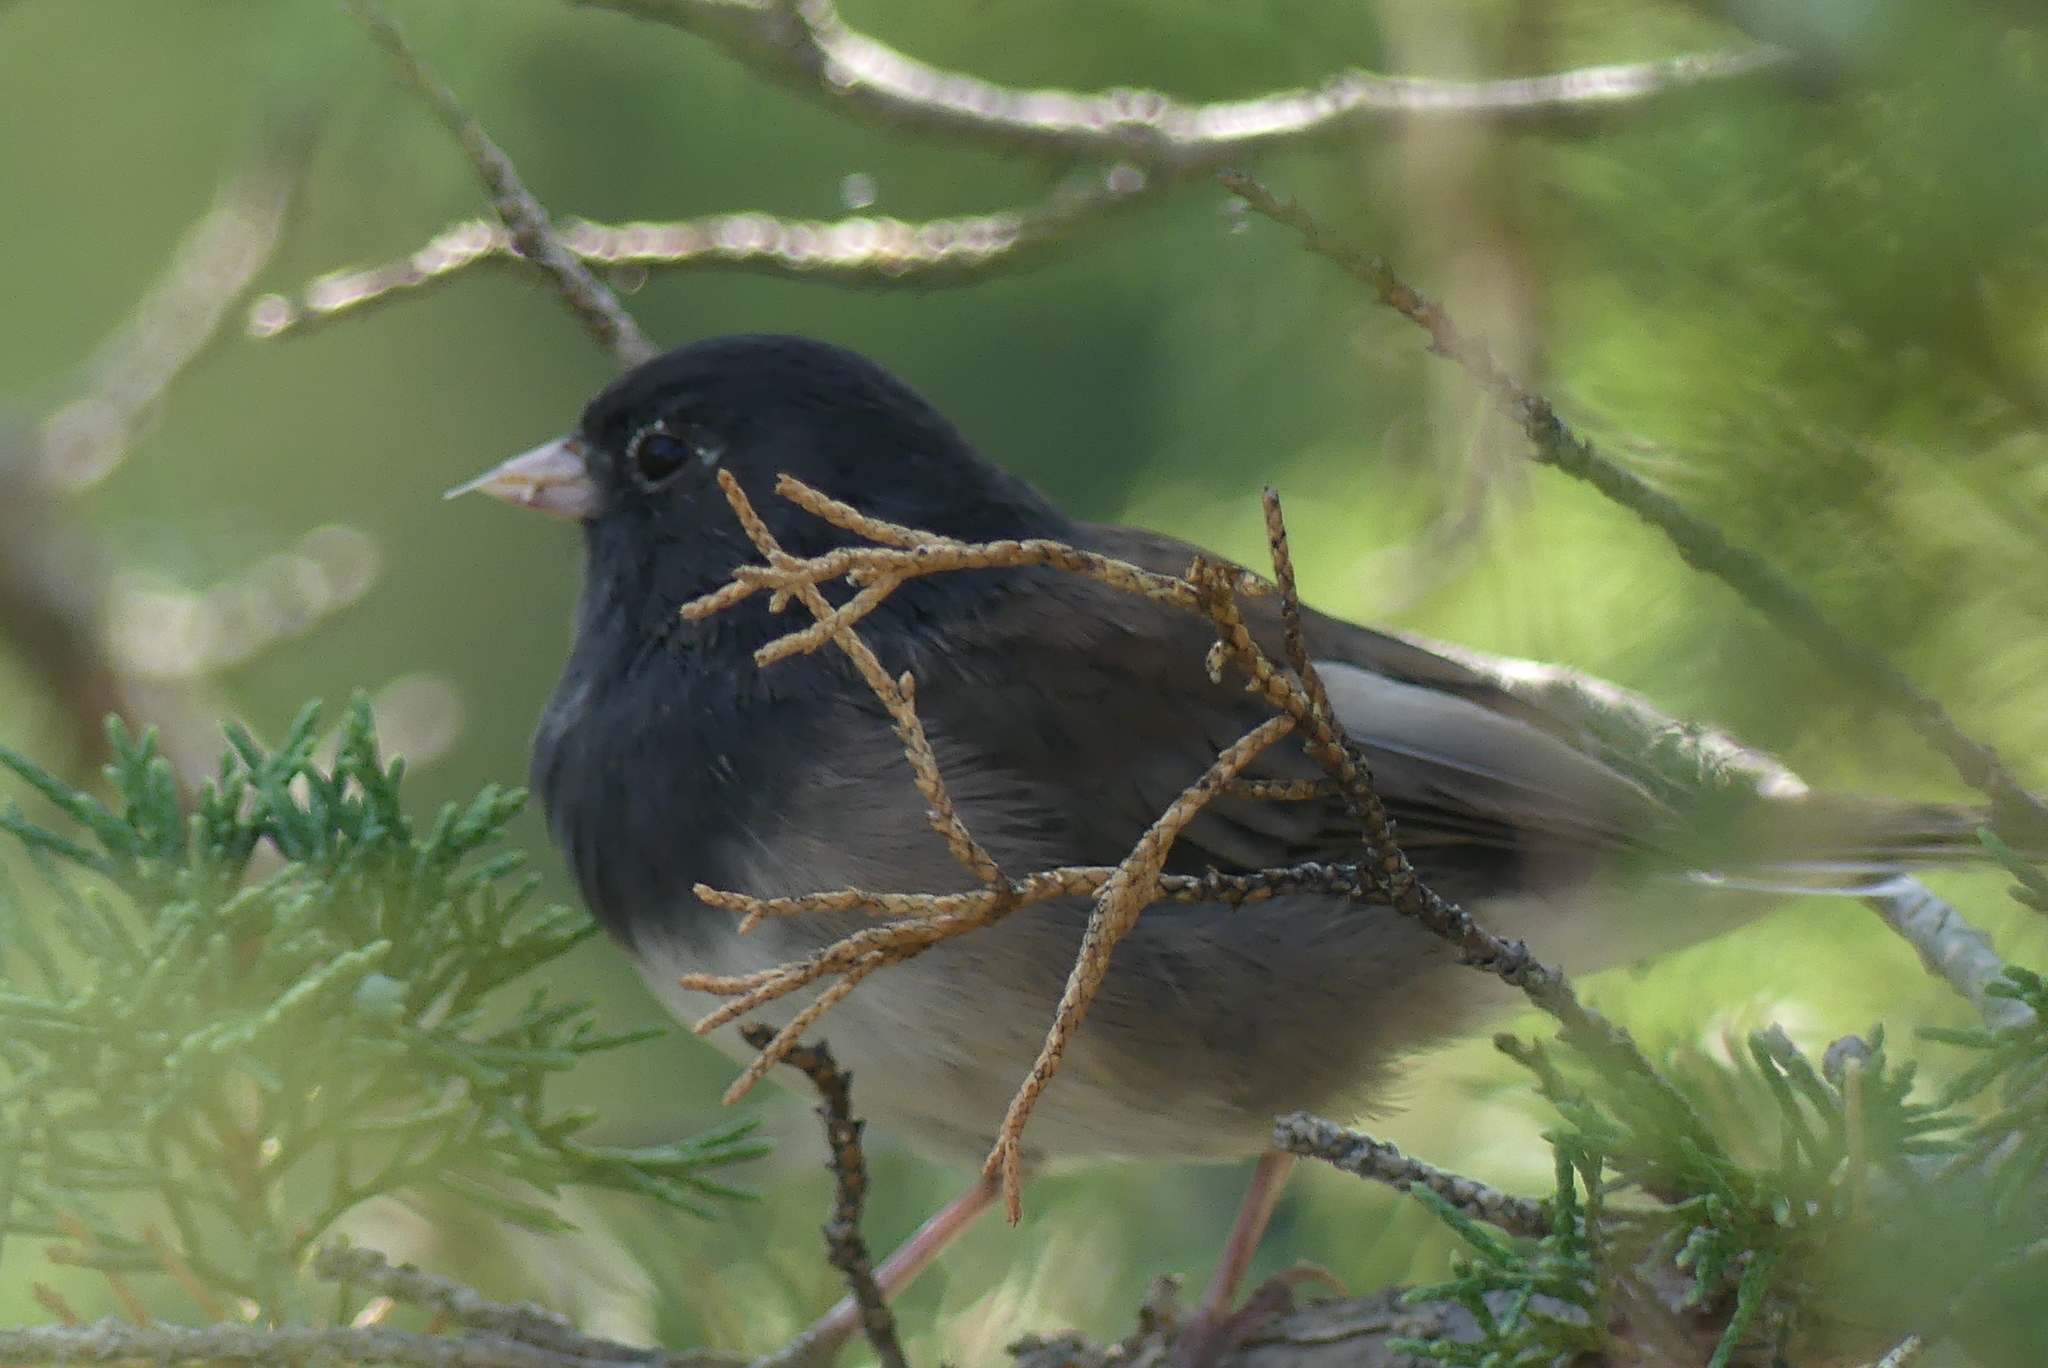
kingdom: Animalia
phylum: Chordata
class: Aves
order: Passeriformes
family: Passerellidae
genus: Junco
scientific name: Junco hyemalis
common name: Dark-eyed junco
